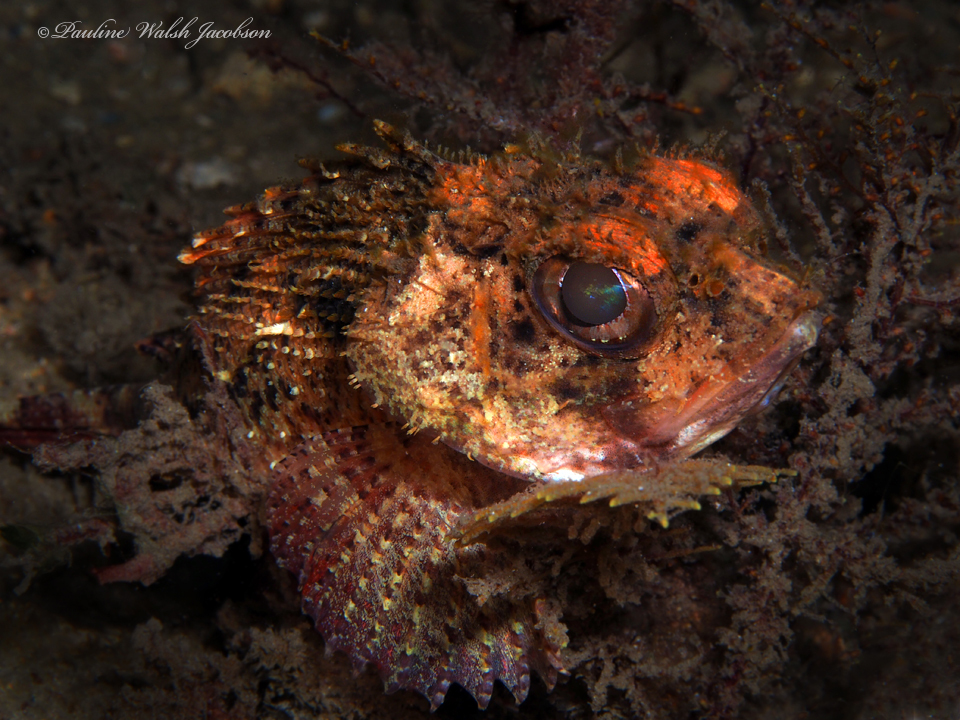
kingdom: Animalia
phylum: Chordata
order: Scorpaeniformes
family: Scorpaenidae
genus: Scorpaena
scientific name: Scorpaena brasiliensis
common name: Barbfish
